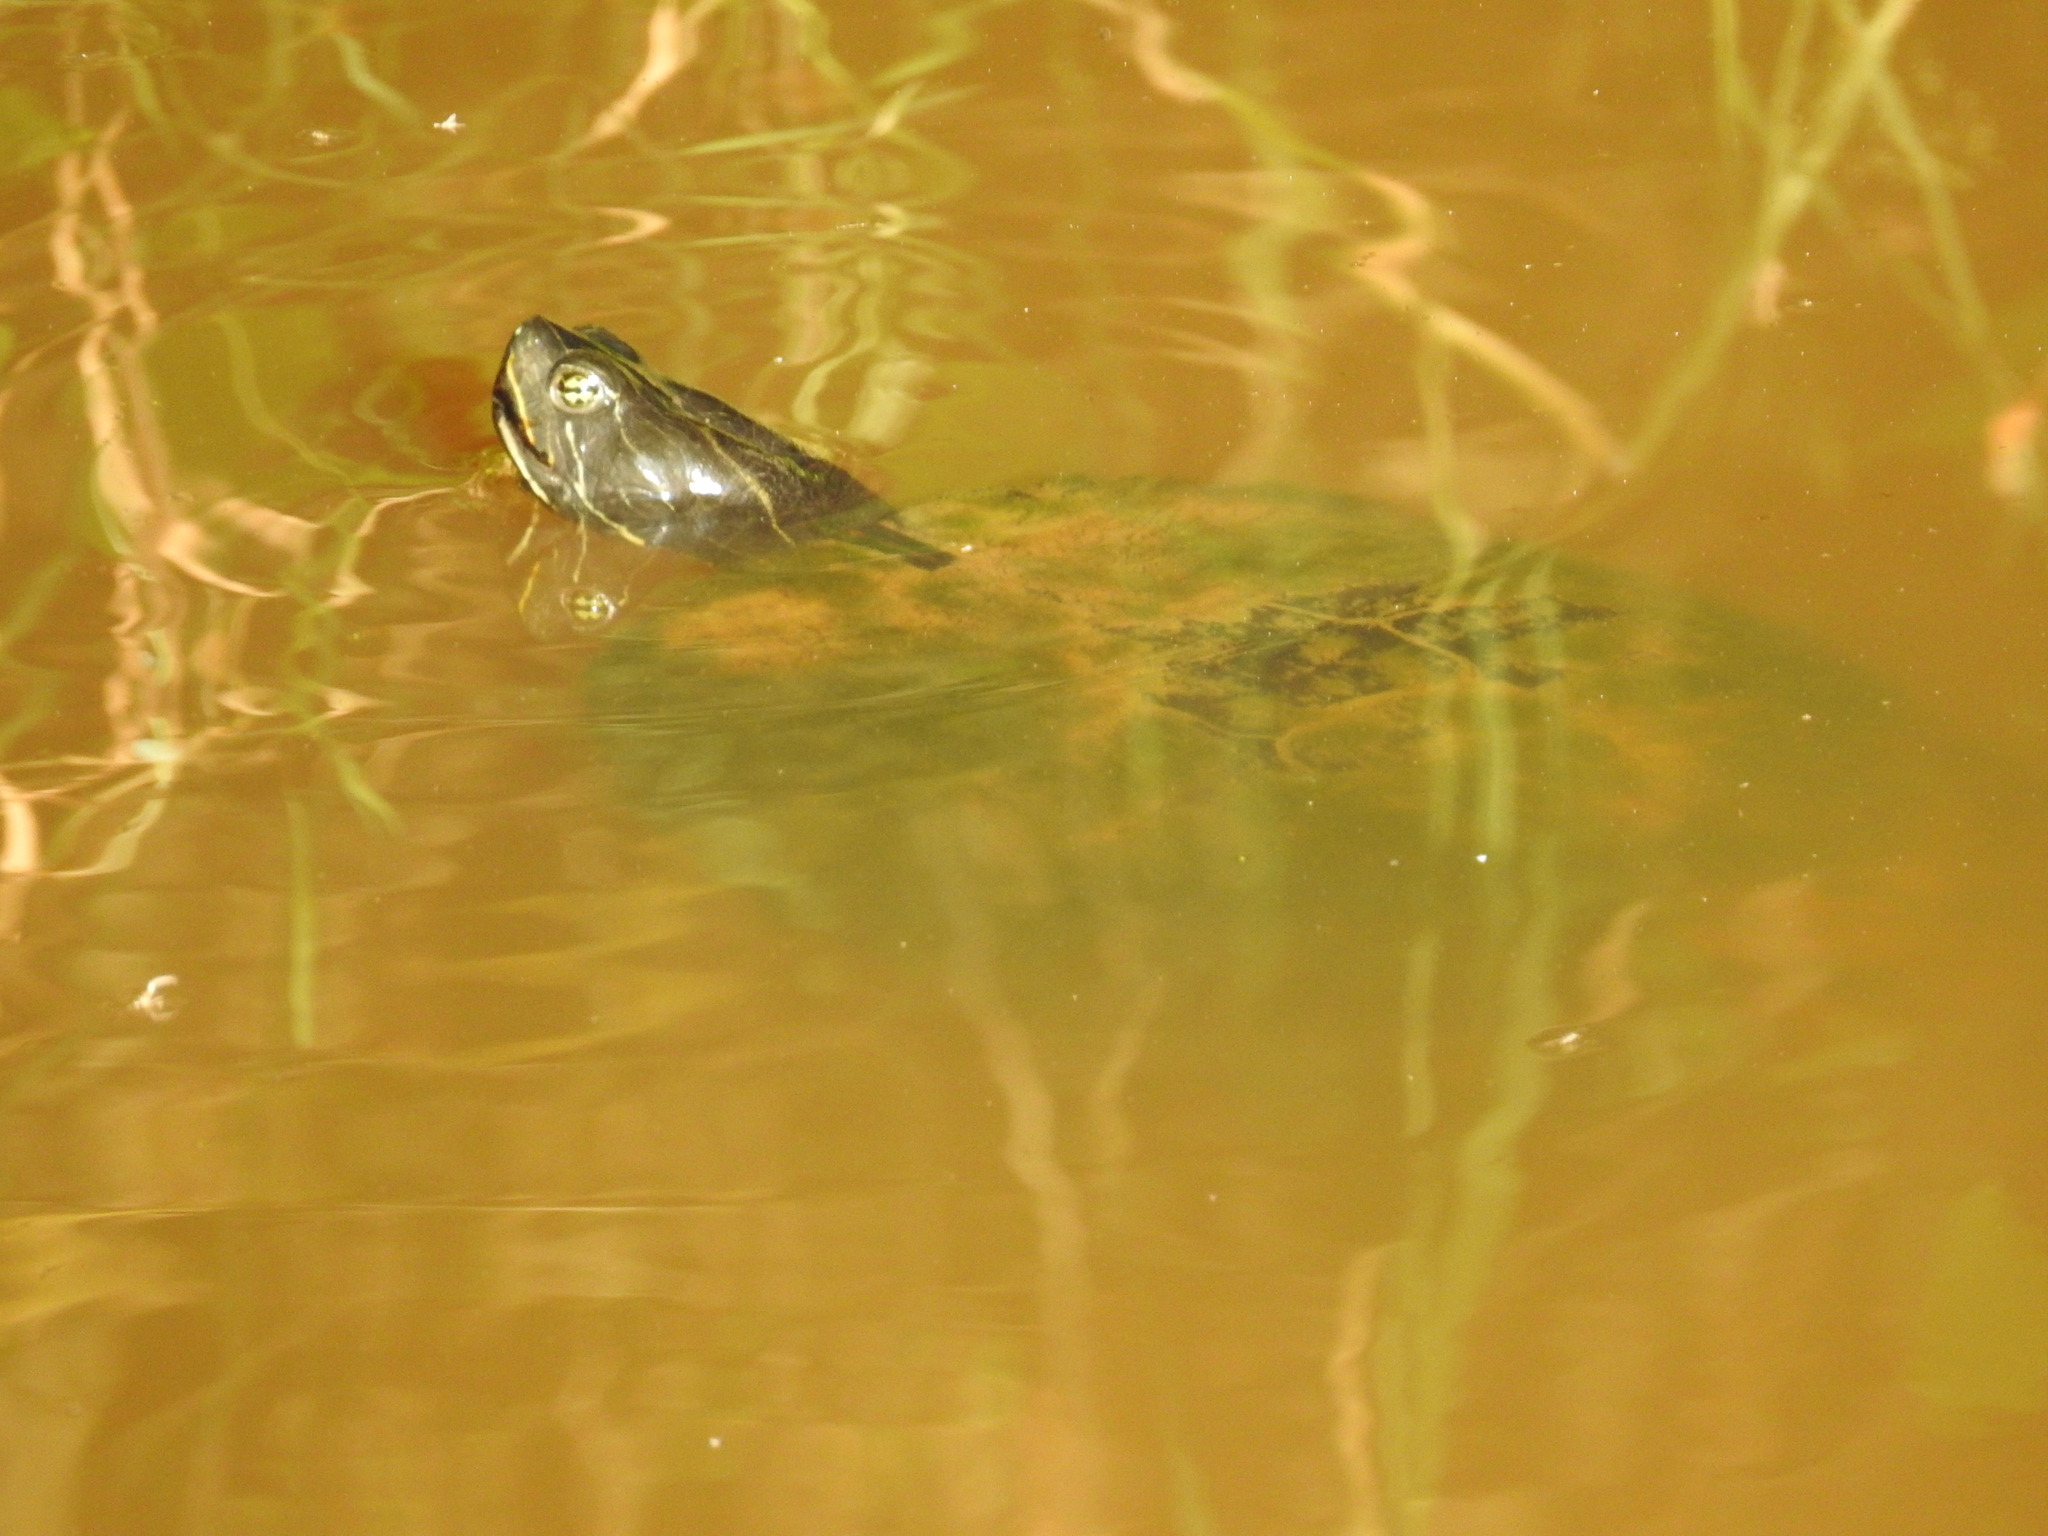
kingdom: Animalia
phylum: Chordata
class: Testudines
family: Emydidae
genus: Pseudemys
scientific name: Pseudemys concinna
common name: Eastern river cooter
